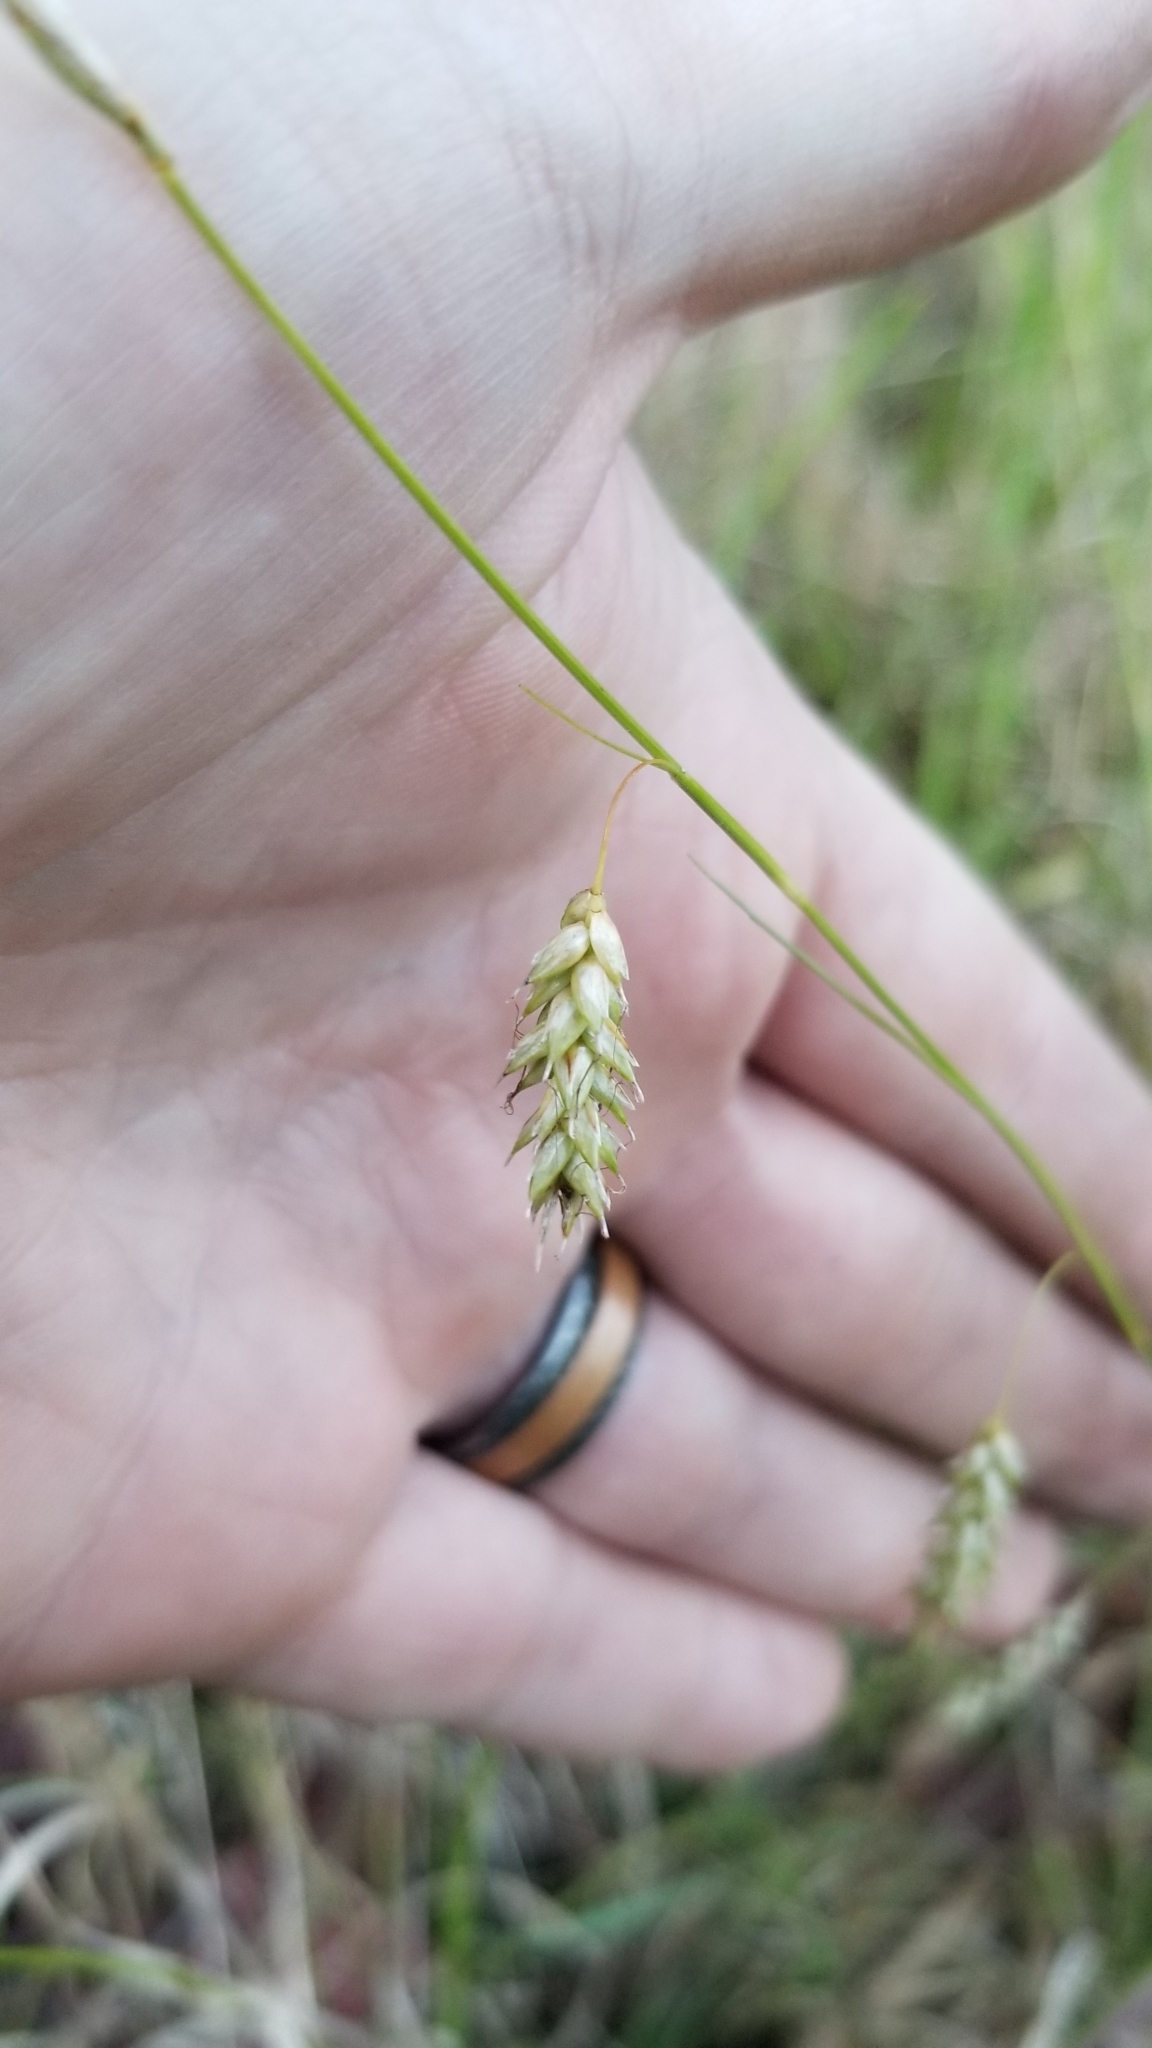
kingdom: Plantae
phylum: Tracheophyta
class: Liliopsida
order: Poales
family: Cyperaceae
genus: Carex
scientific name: Carex cherokeensis
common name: Cherokee sedge
